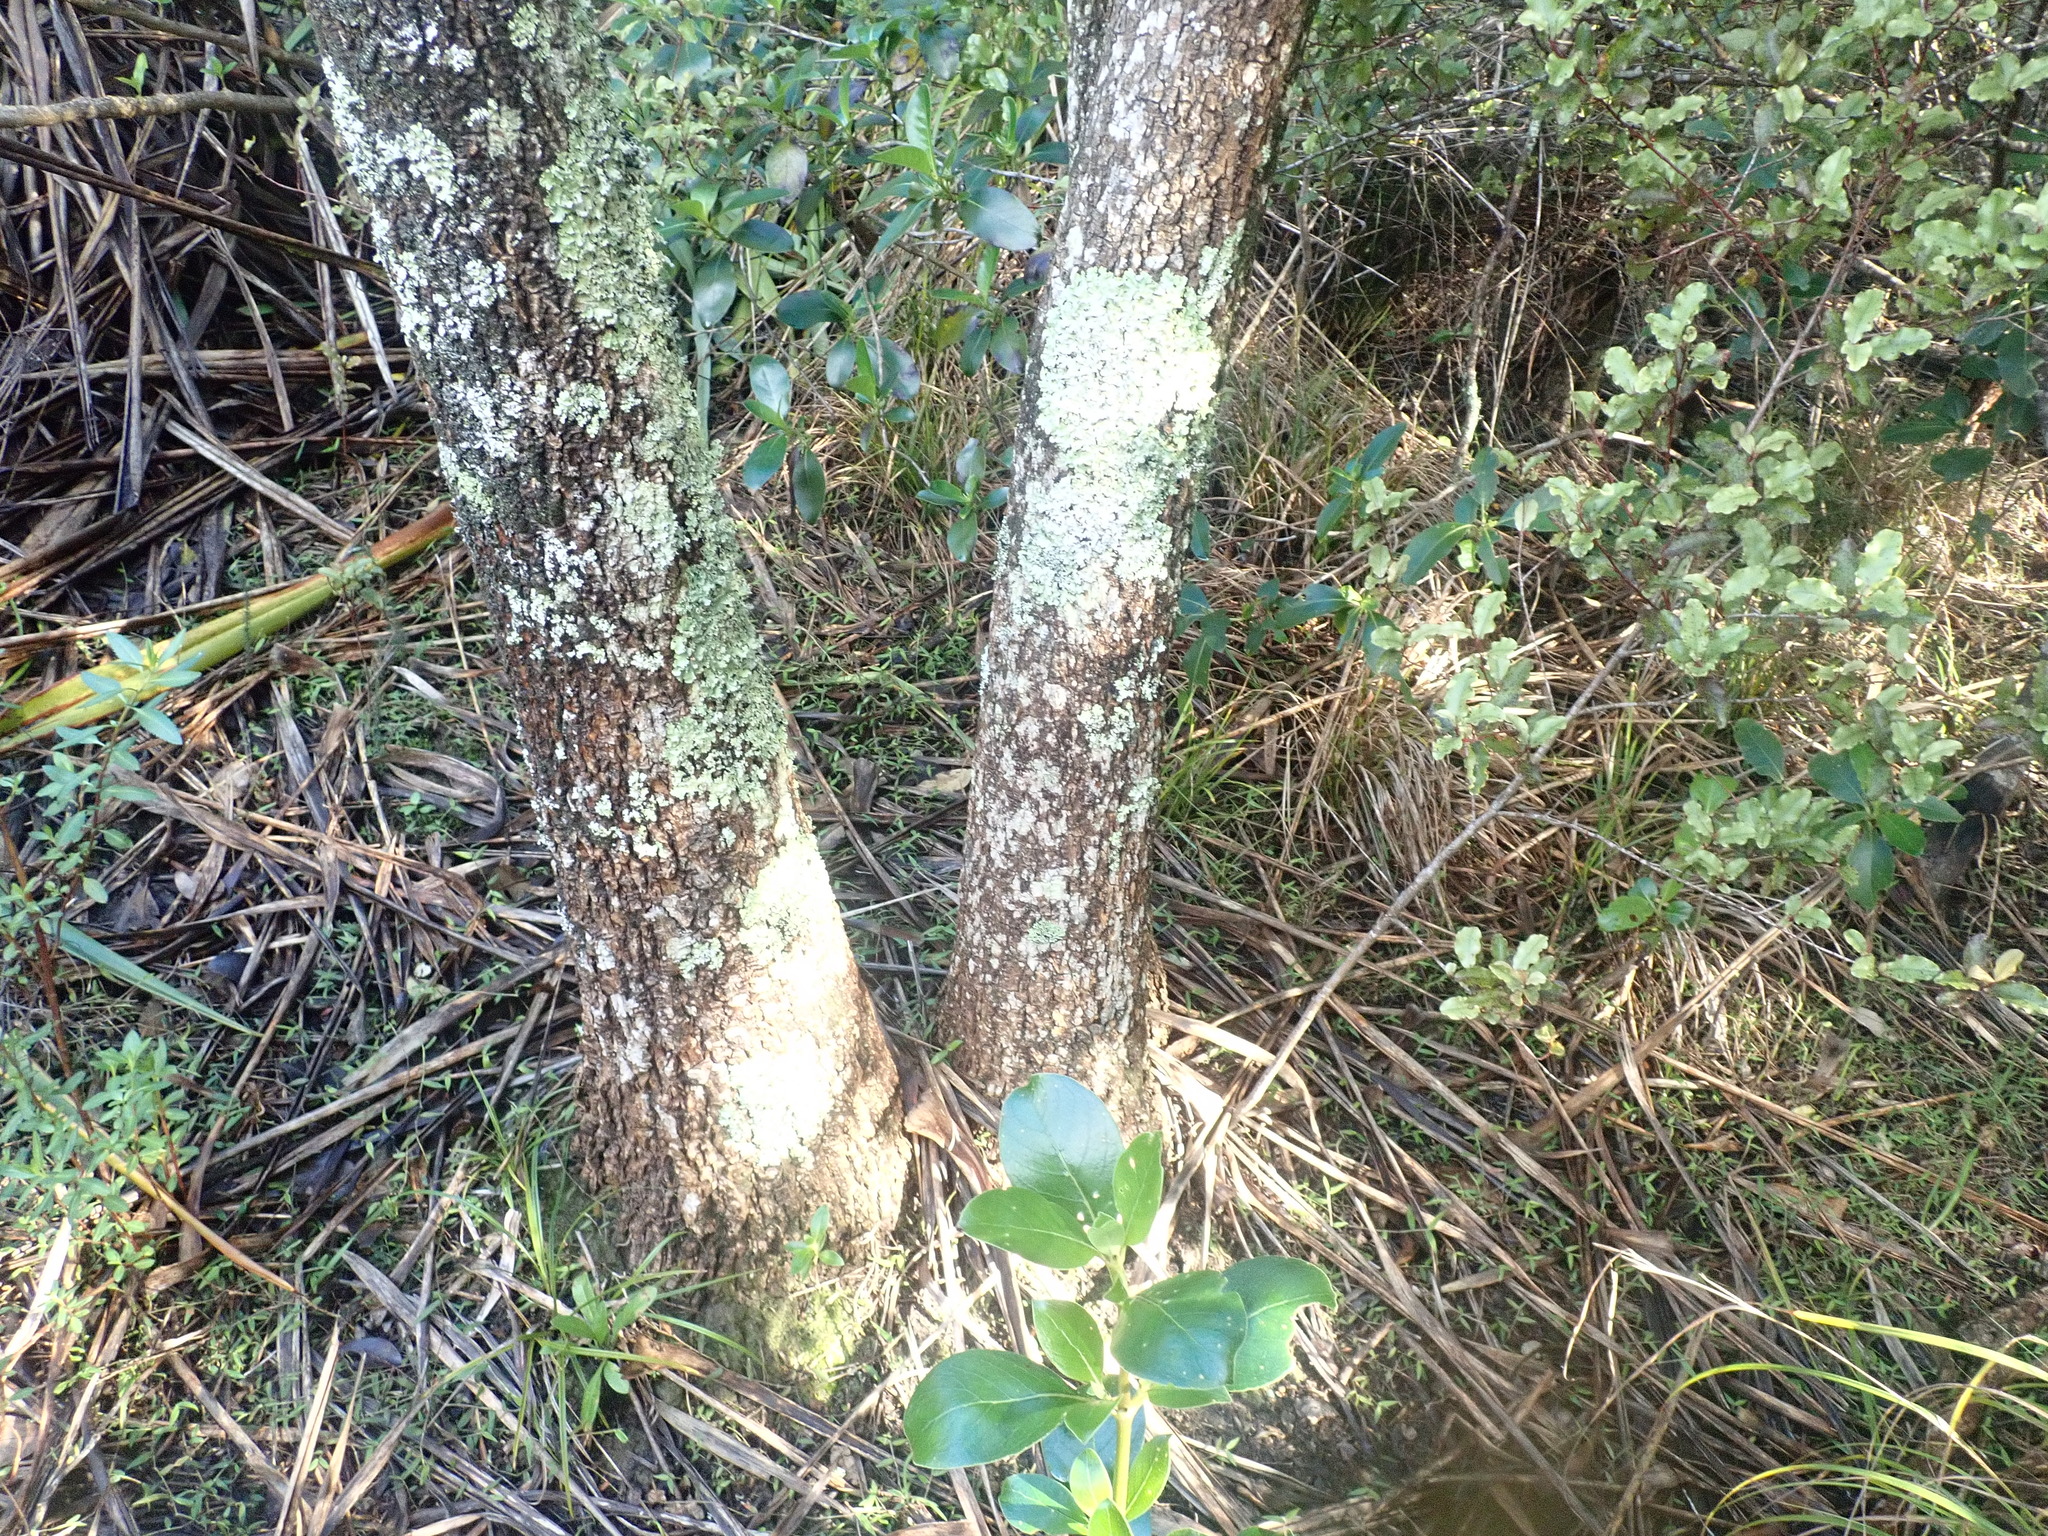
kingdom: Plantae
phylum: Tracheophyta
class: Liliopsida
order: Asparagales
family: Asparagaceae
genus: Cordyline
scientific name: Cordyline australis
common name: Cabbage-palm
